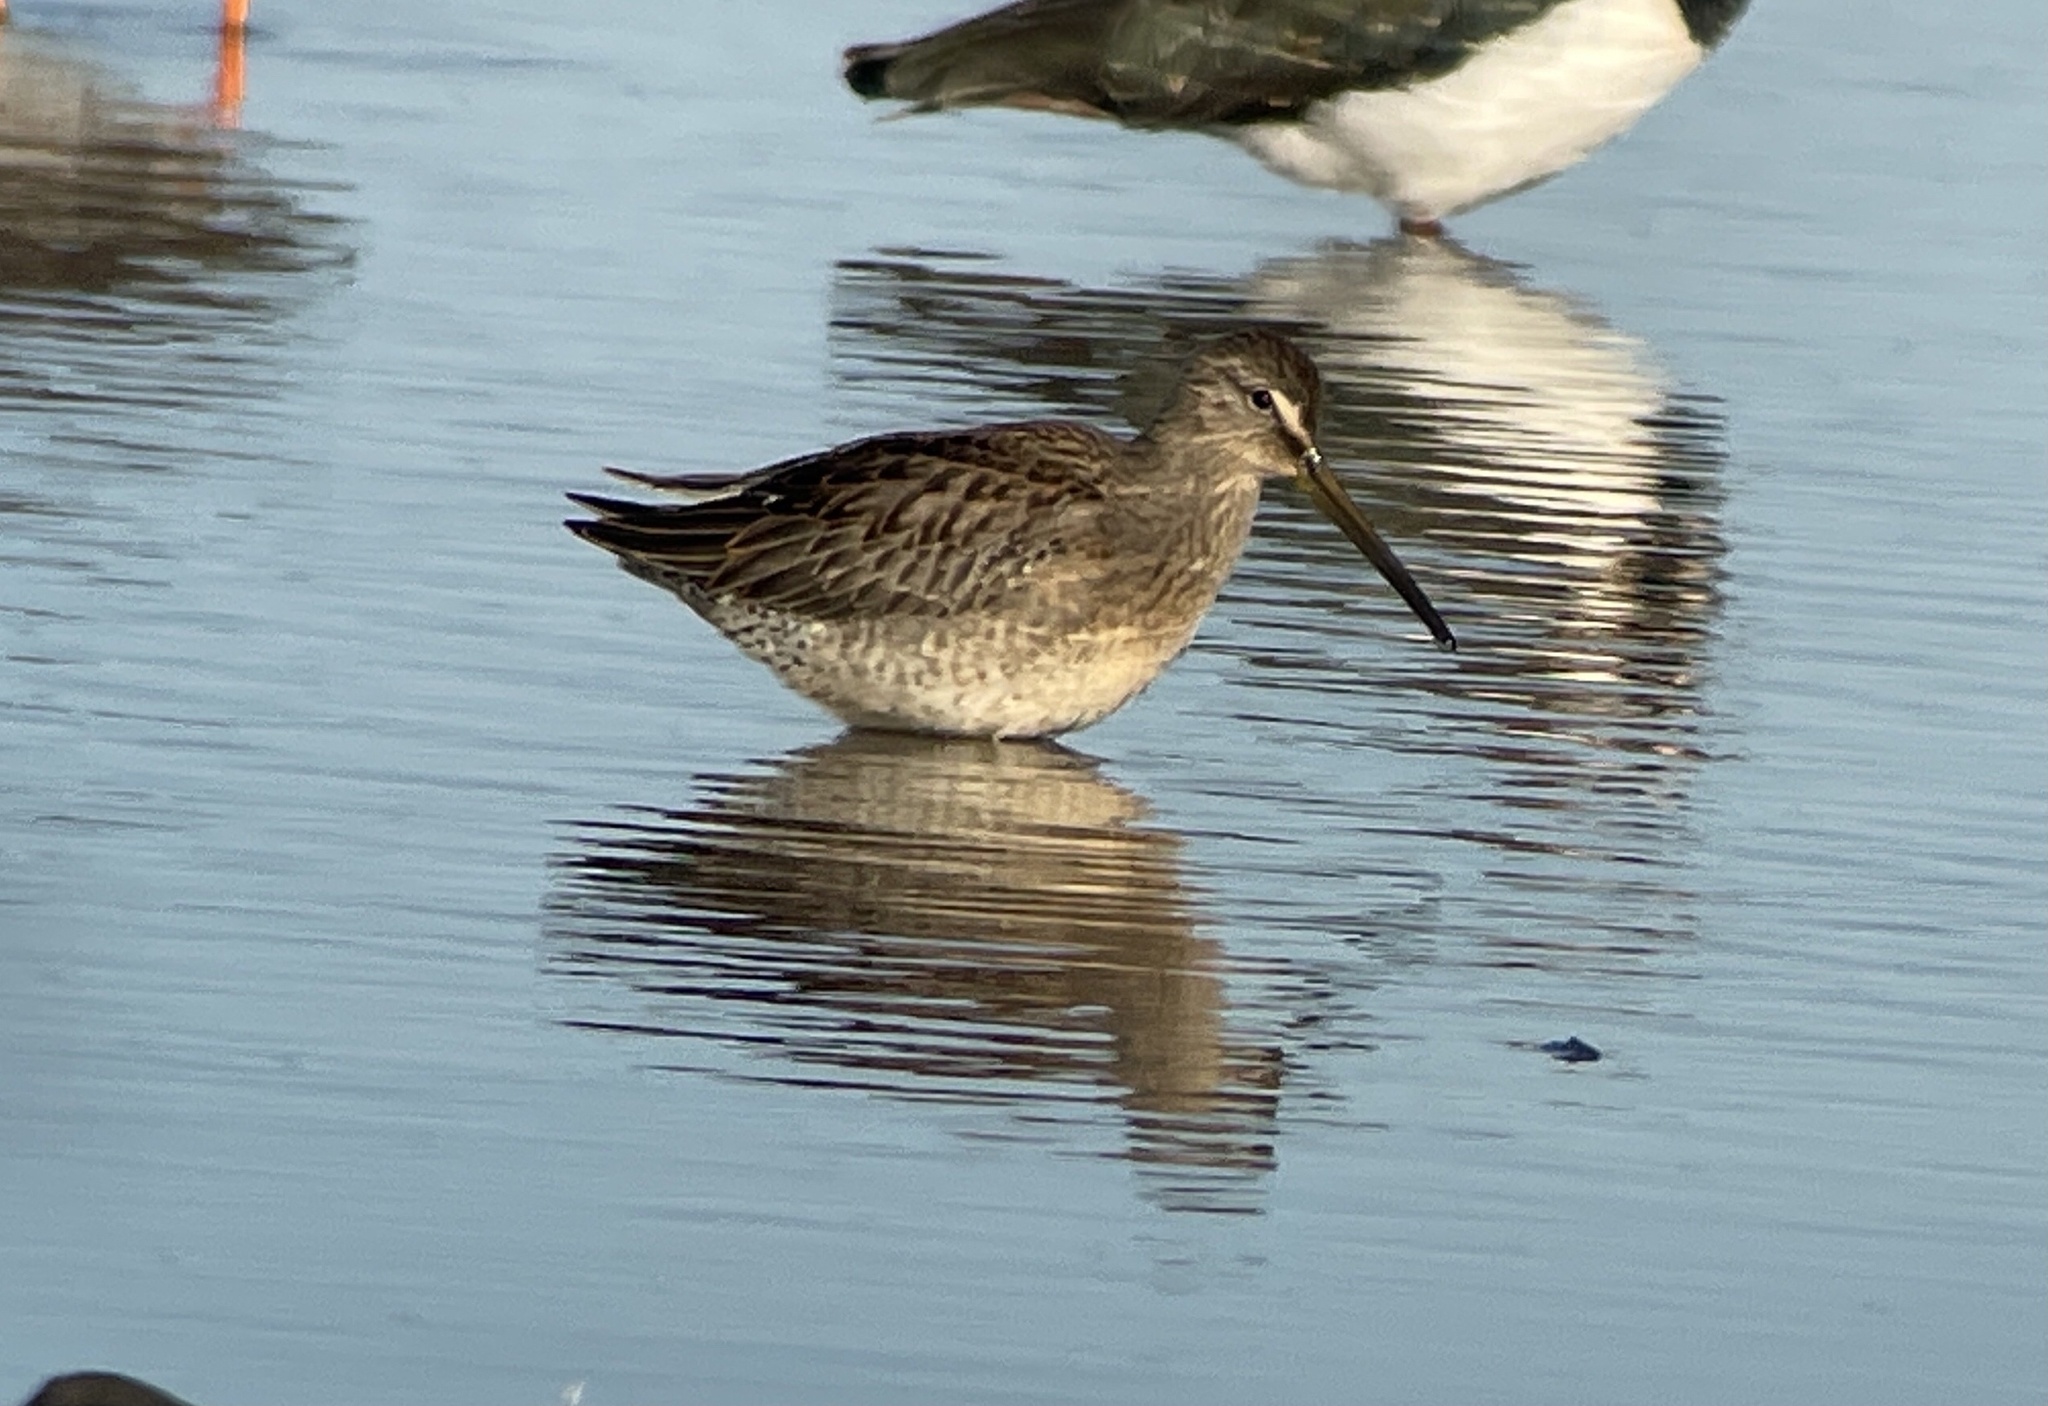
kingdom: Animalia
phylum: Chordata
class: Aves
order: Charadriiformes
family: Scolopacidae
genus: Limnodromus
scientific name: Limnodromus scolopaceus
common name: Long-billed dowitcher
